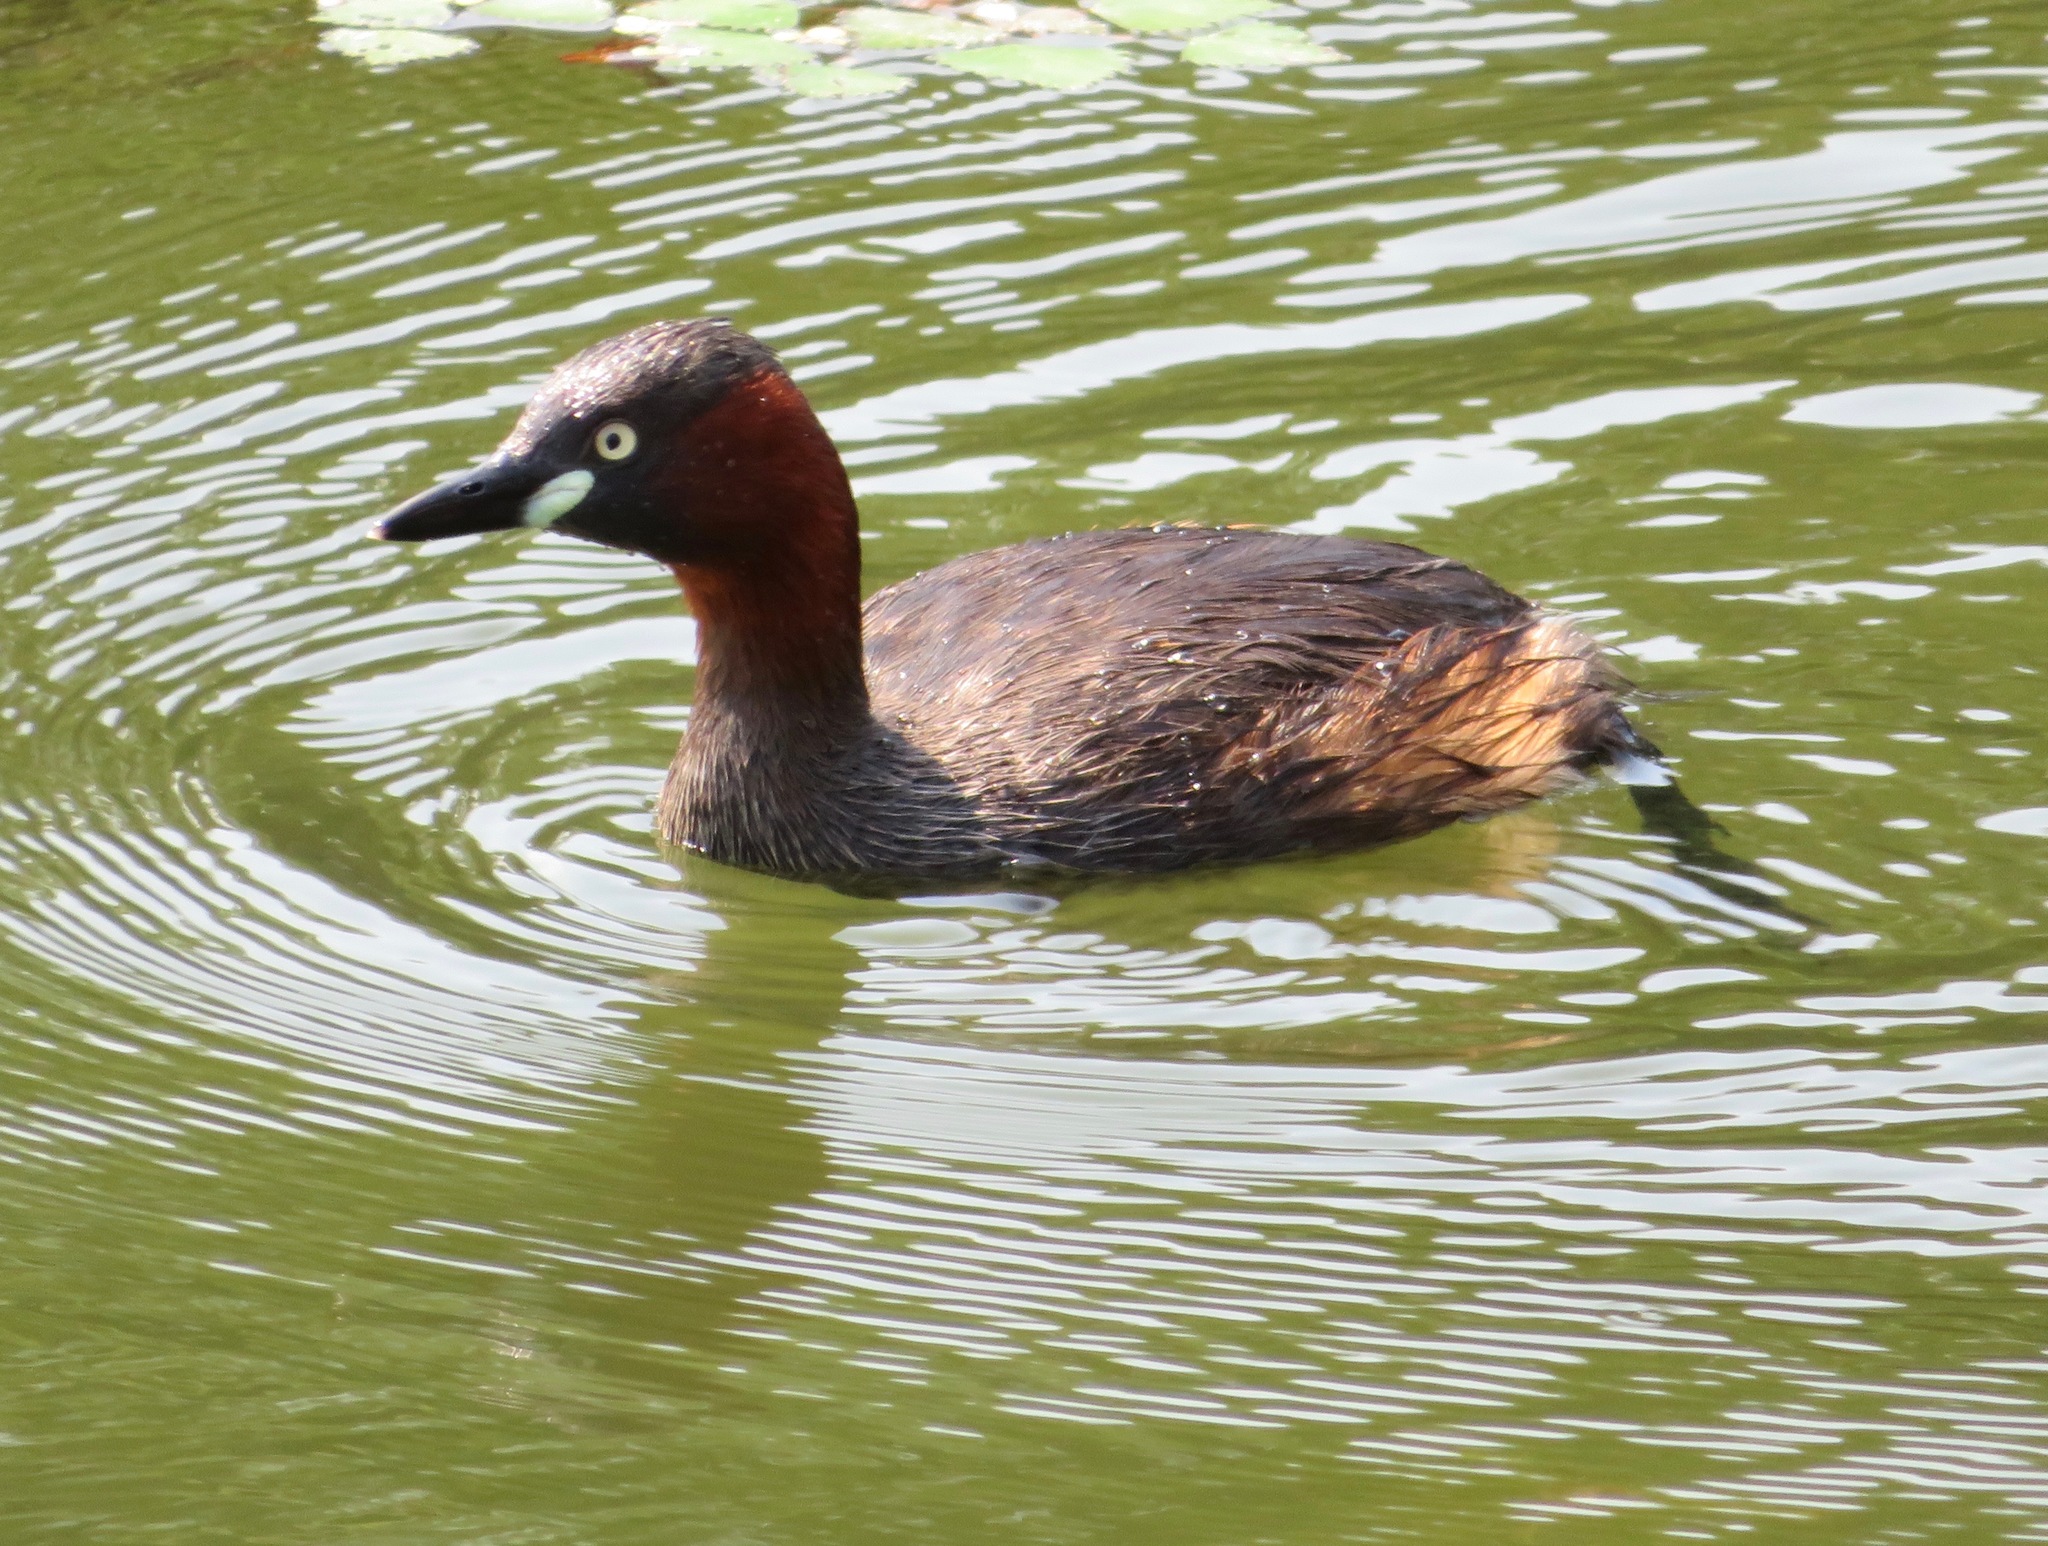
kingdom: Animalia
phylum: Chordata
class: Aves
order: Podicipediformes
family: Podicipedidae
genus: Tachybaptus
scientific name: Tachybaptus ruficollis
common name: Little grebe
